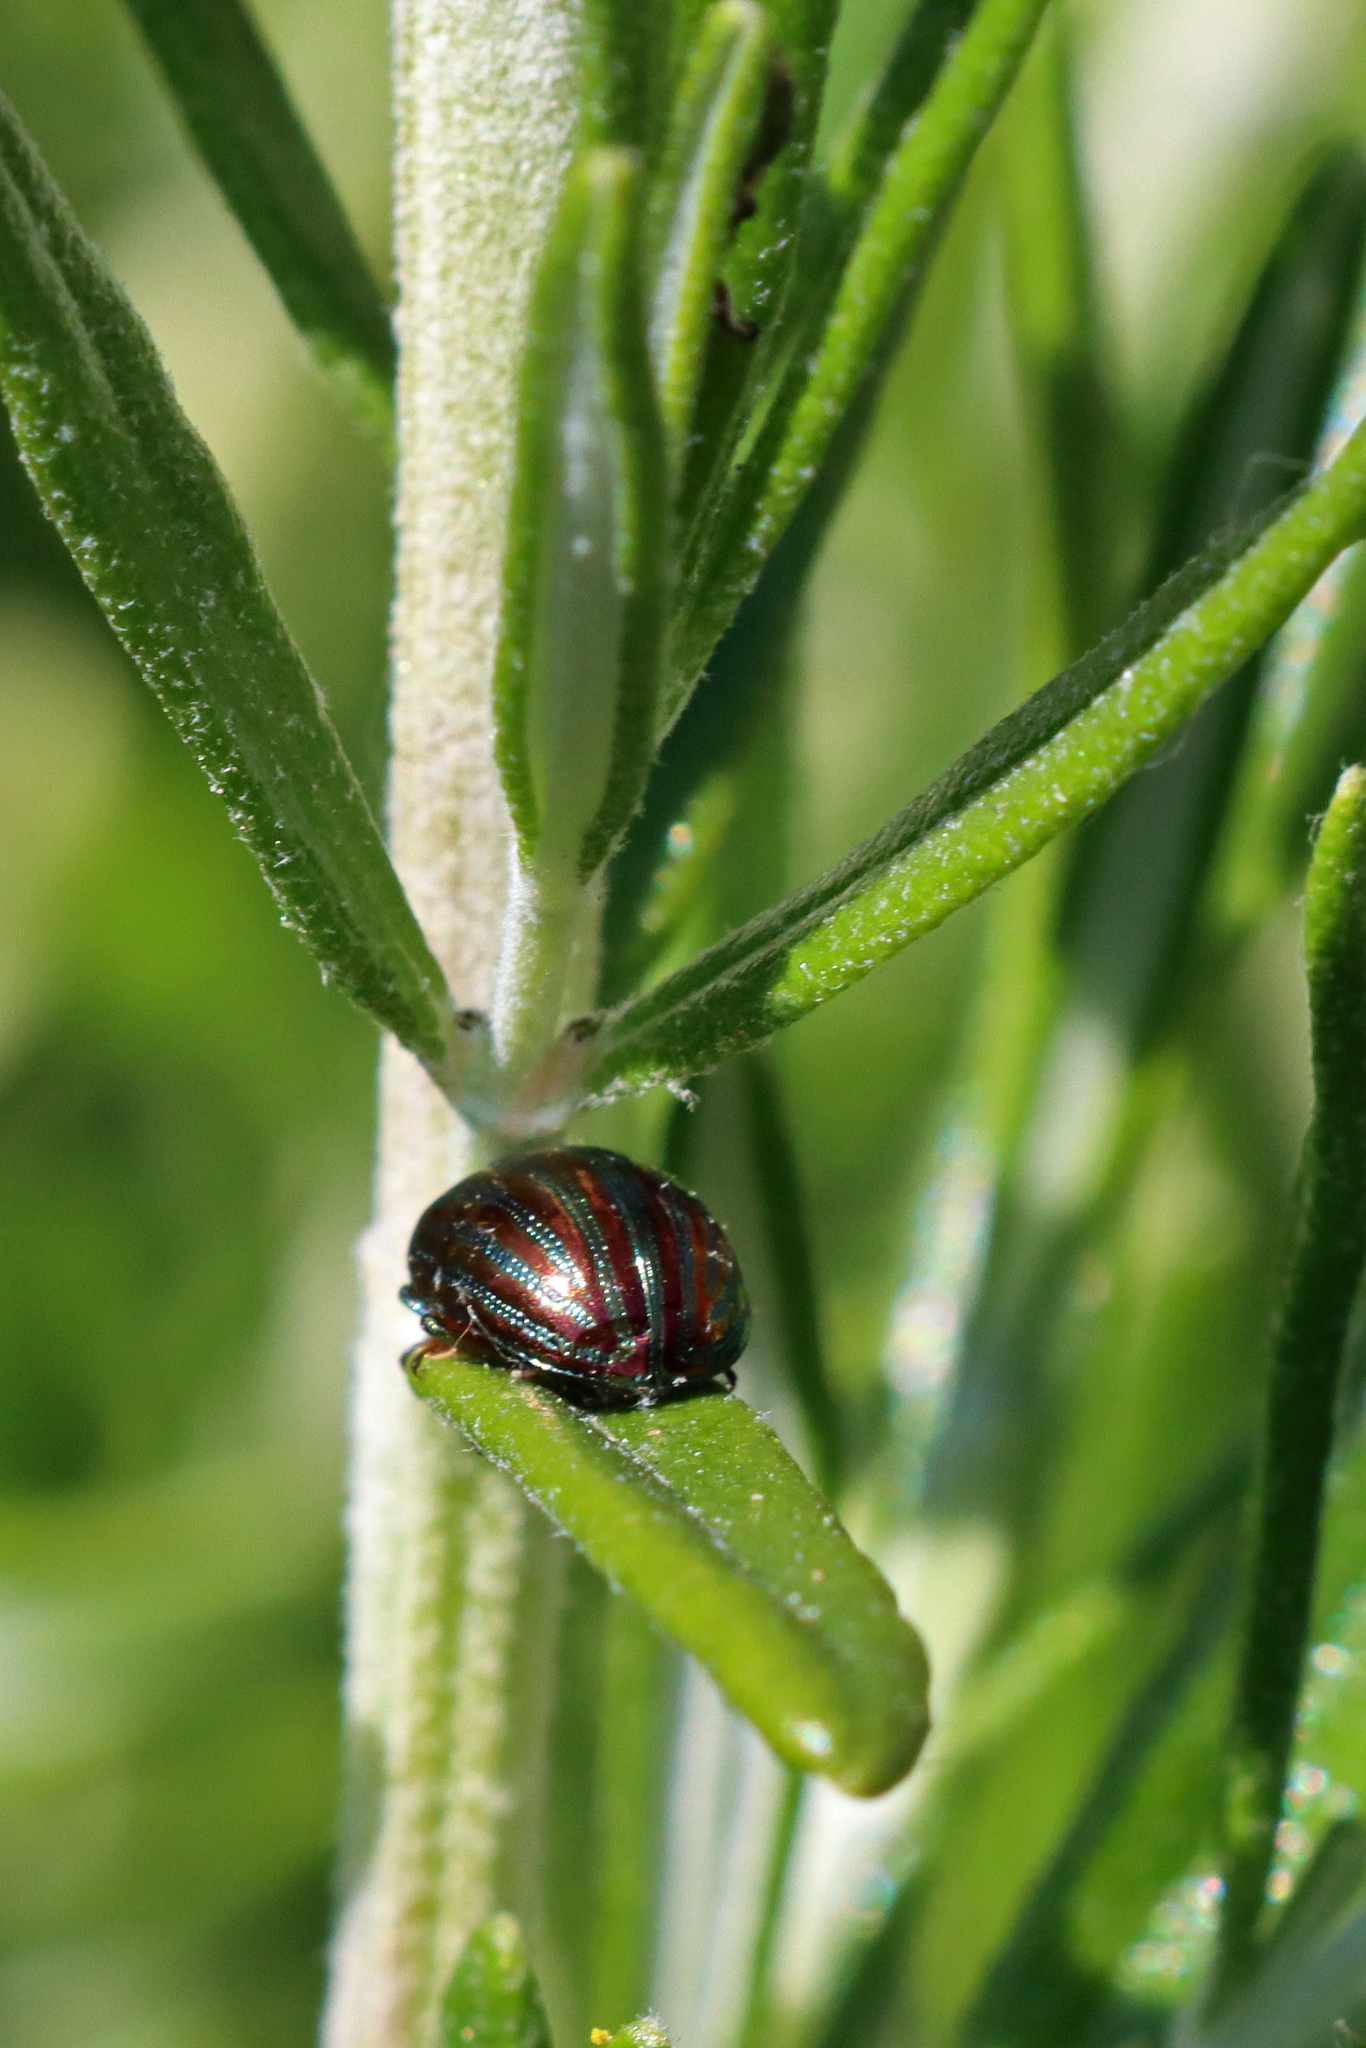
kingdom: Animalia
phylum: Arthropoda
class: Insecta
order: Coleoptera
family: Chrysomelidae
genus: Chrysolina
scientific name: Chrysolina americana
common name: Rosemary beetle
